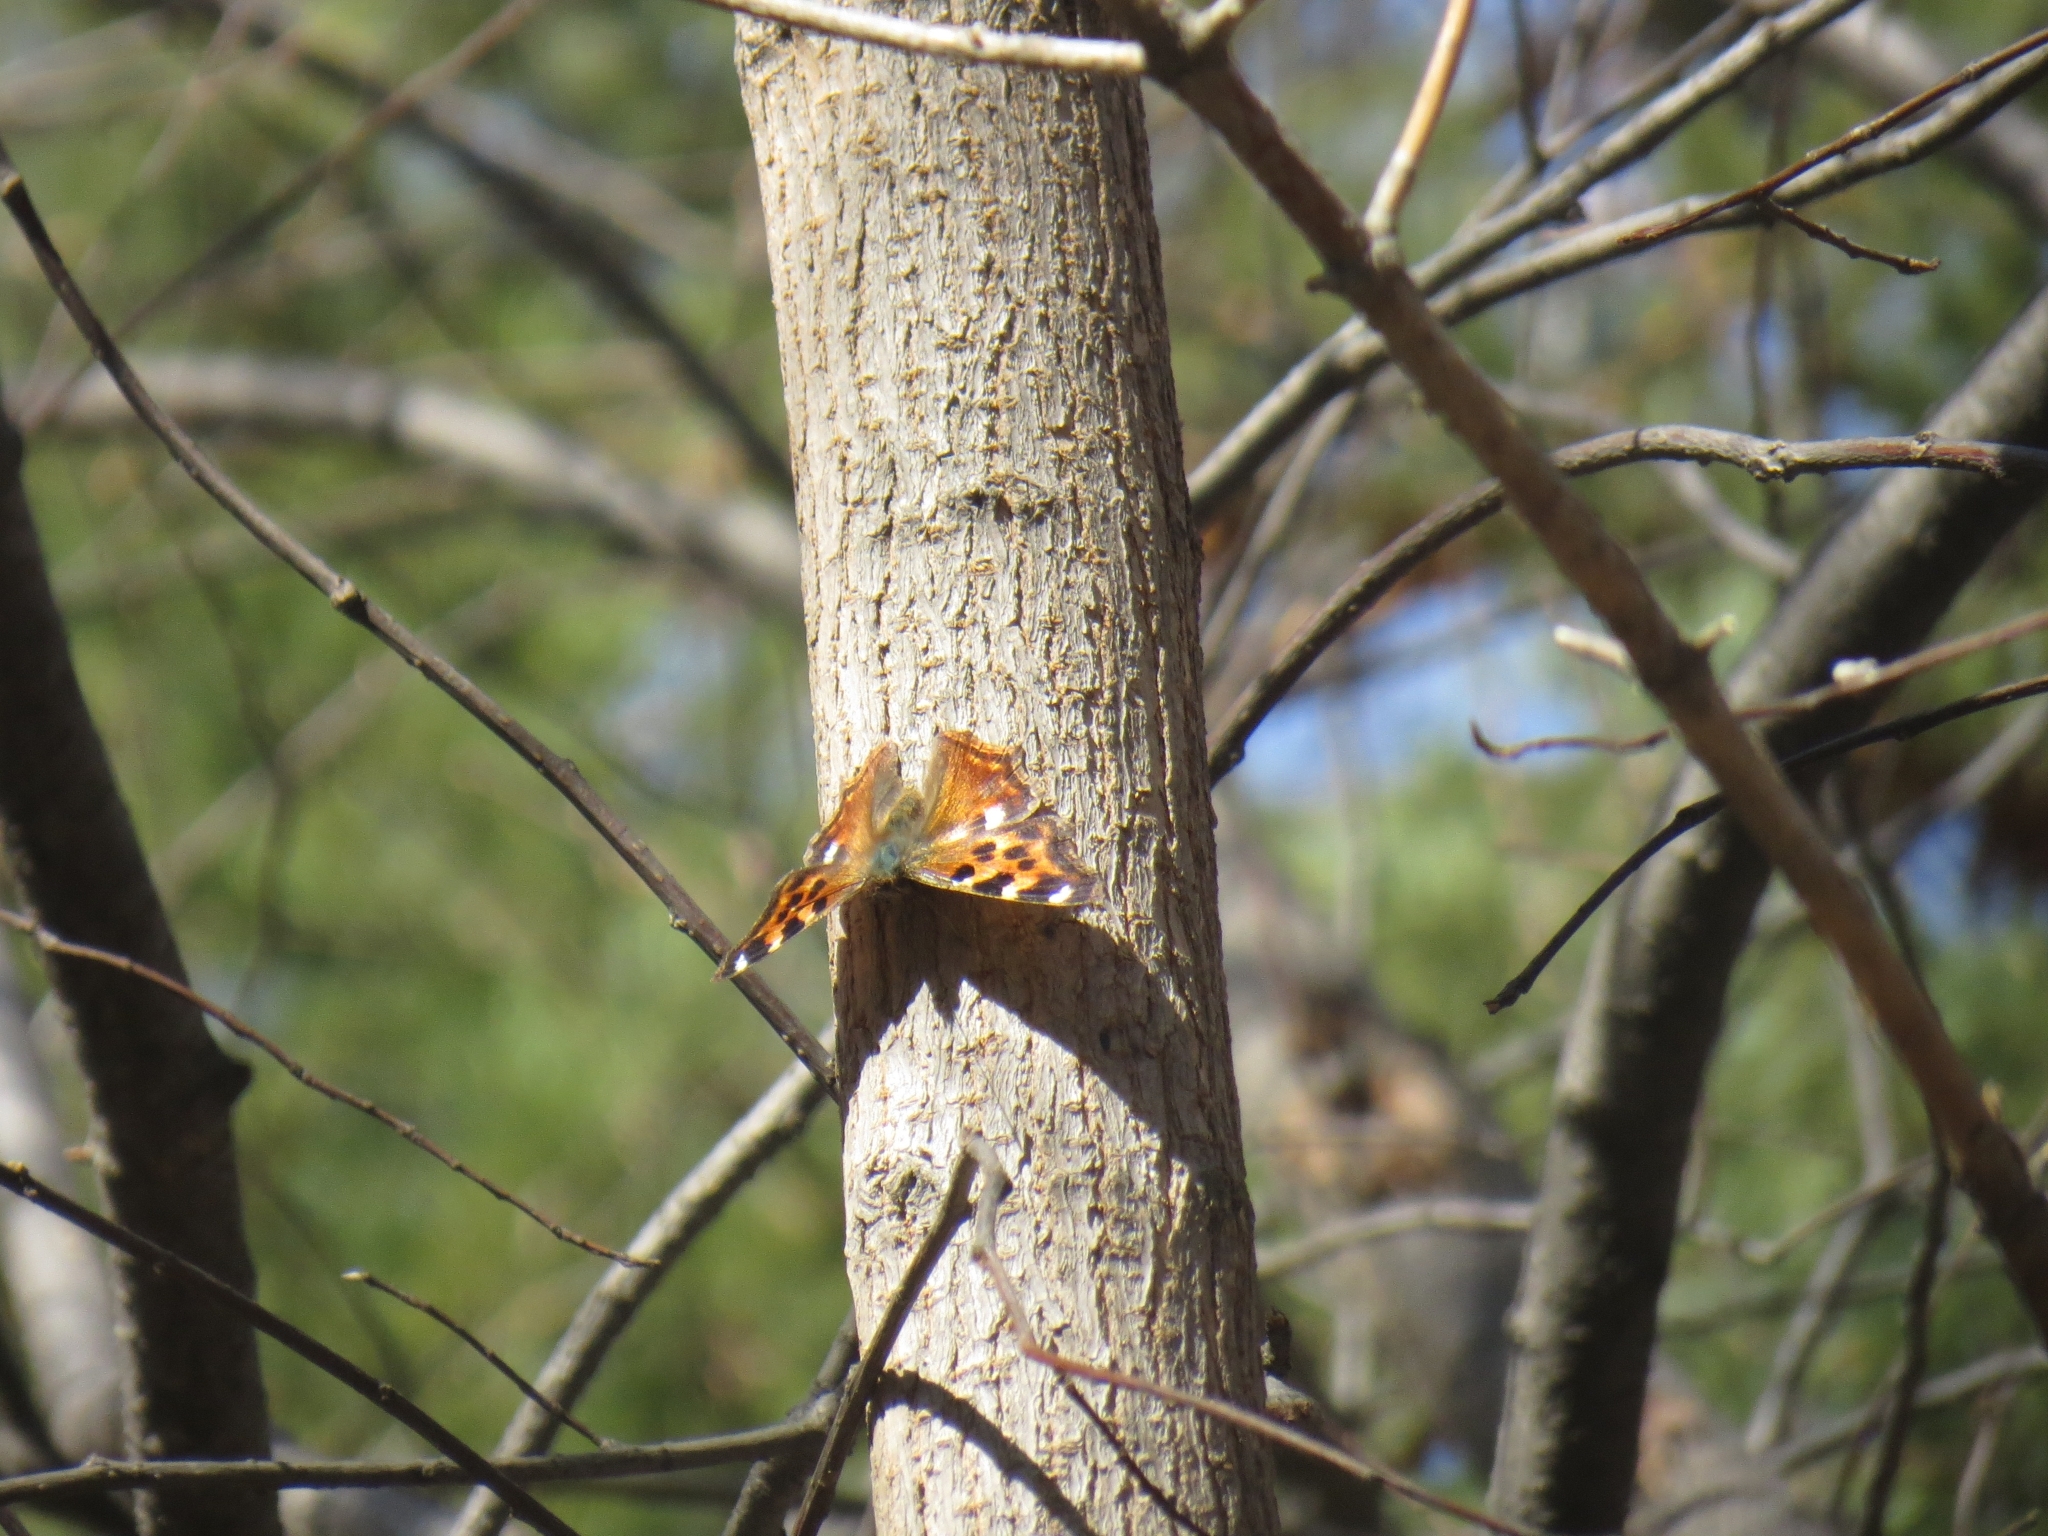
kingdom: Animalia
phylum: Arthropoda
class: Insecta
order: Lepidoptera
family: Nymphalidae
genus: Polygonia
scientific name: Polygonia vaualbum
